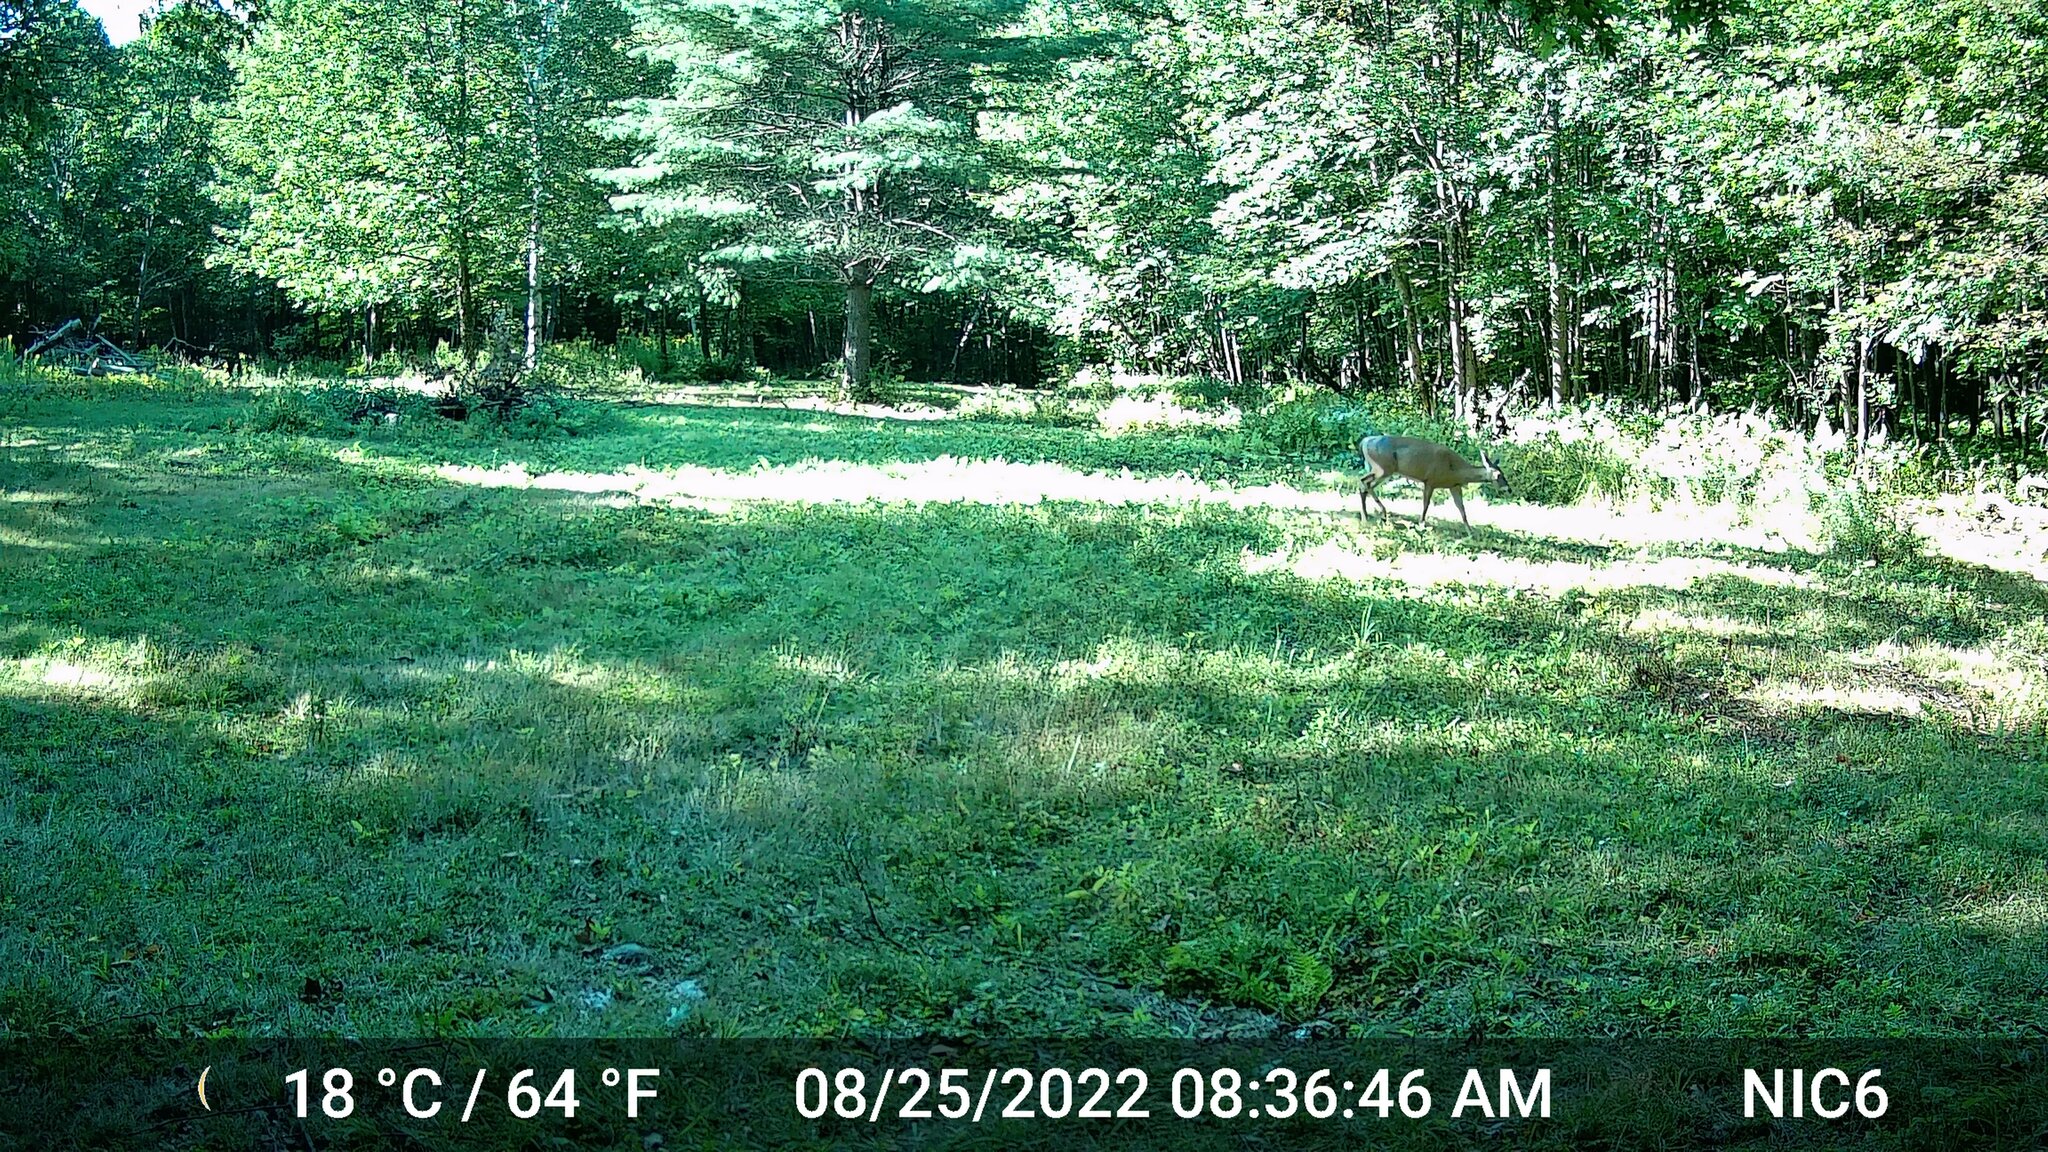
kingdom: Animalia
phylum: Chordata
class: Mammalia
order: Artiodactyla
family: Cervidae
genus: Odocoileus
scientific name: Odocoileus virginianus
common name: White-tailed deer
